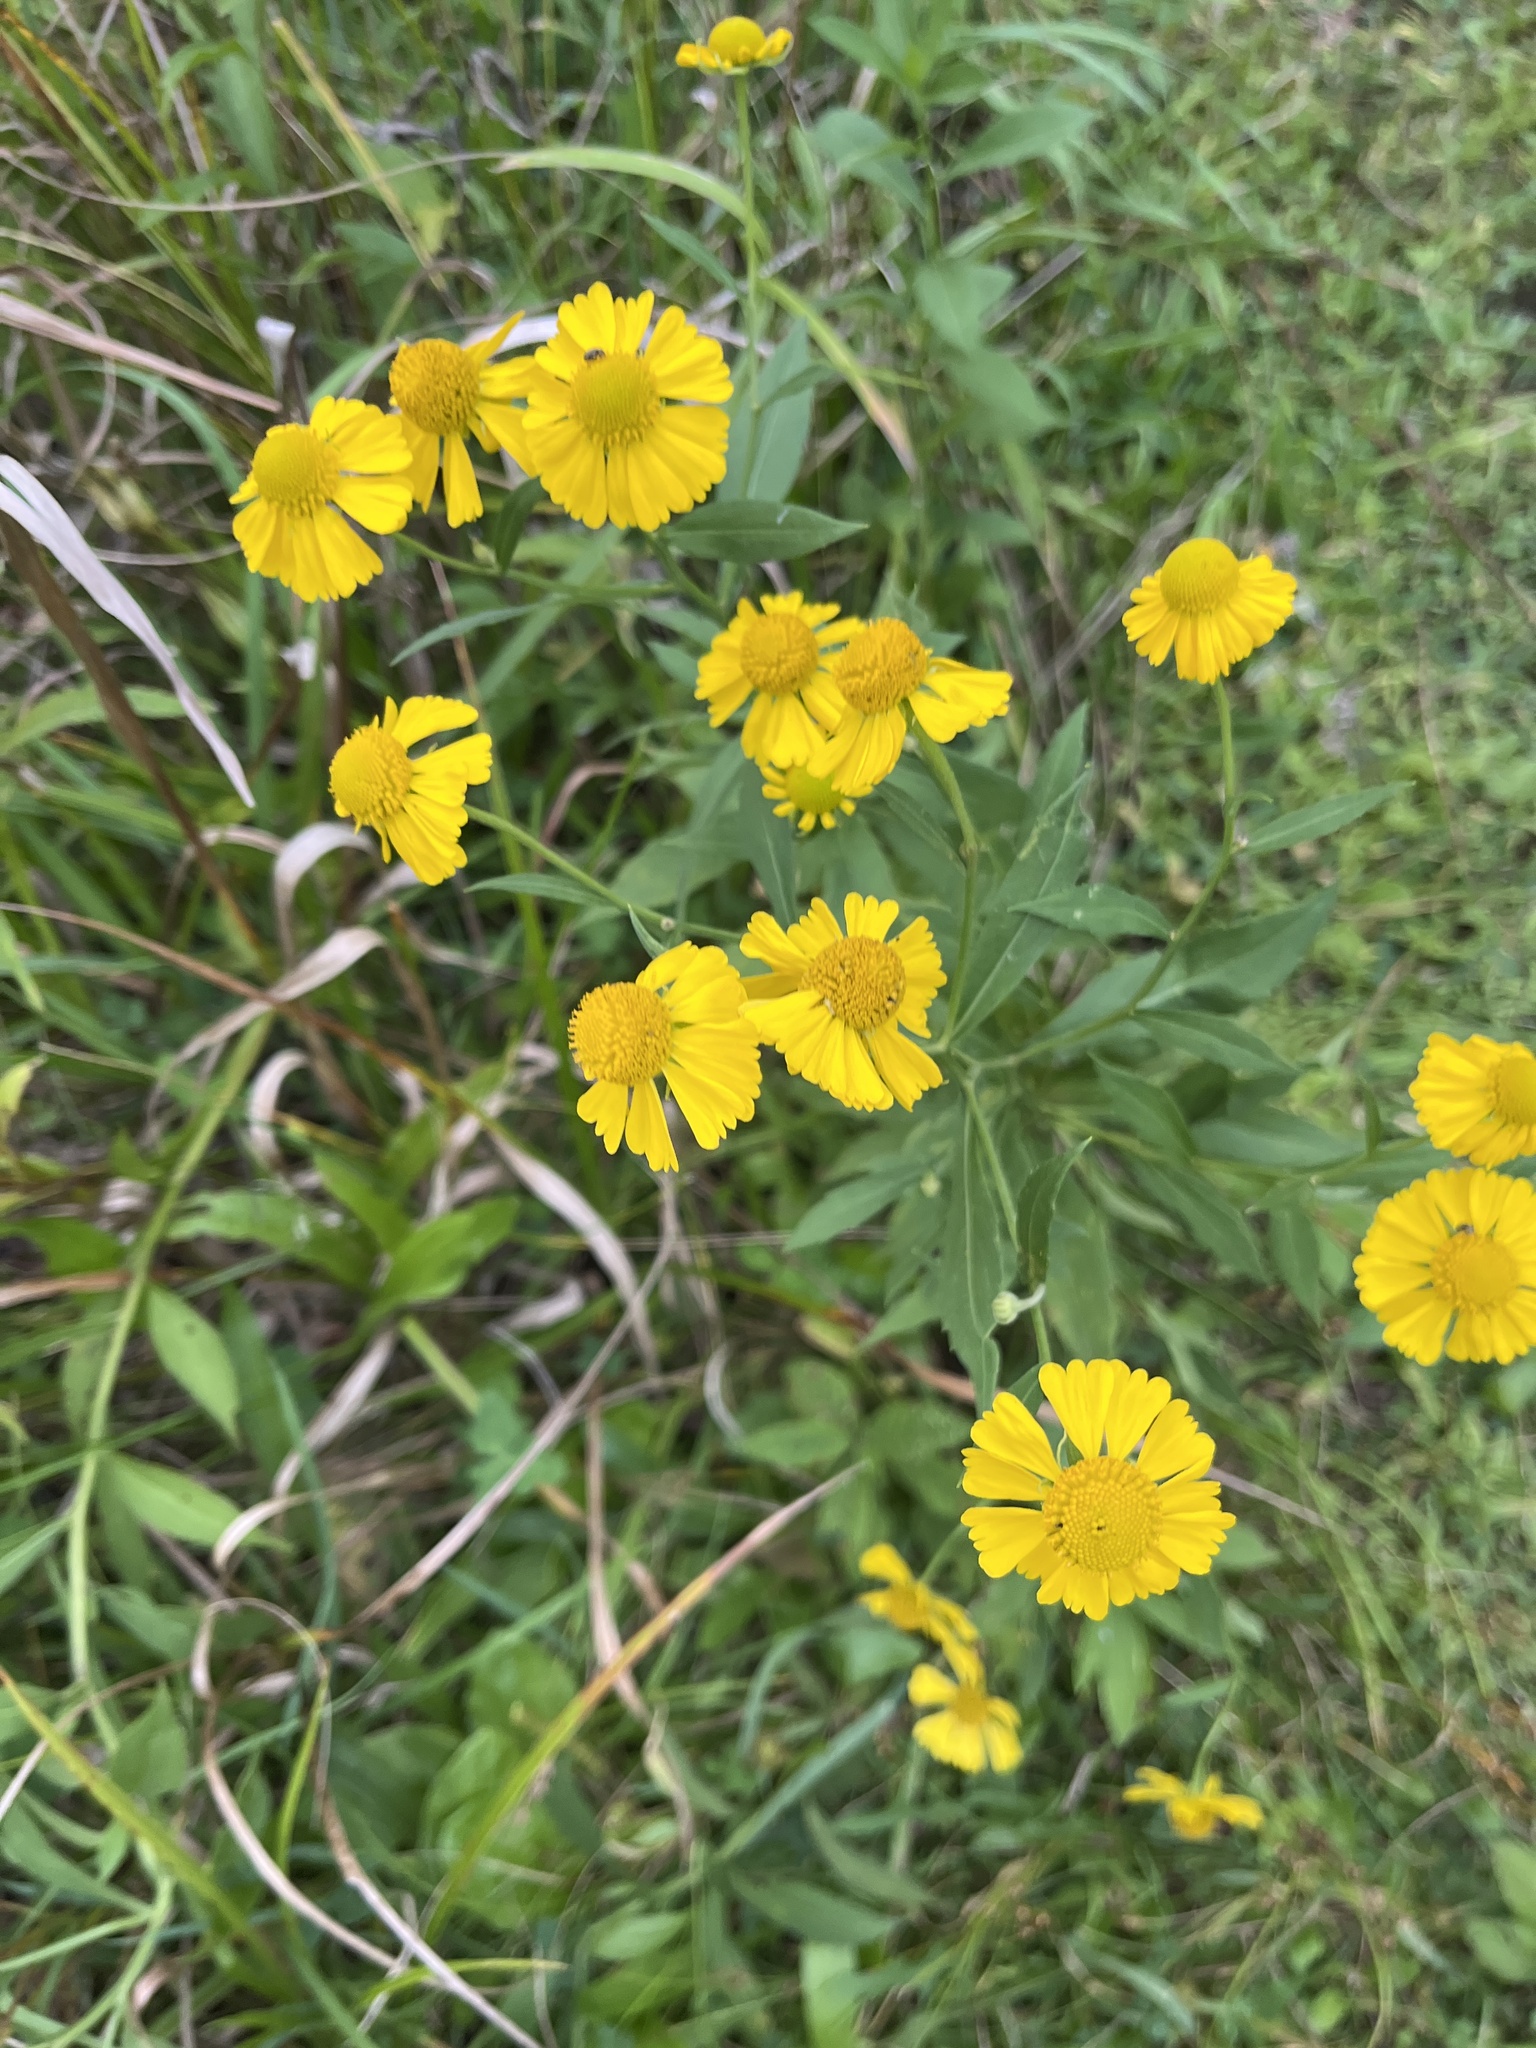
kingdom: Plantae
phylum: Tracheophyta
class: Magnoliopsida
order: Asterales
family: Asteraceae
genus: Helenium
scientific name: Helenium autumnale
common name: Sneezeweed
